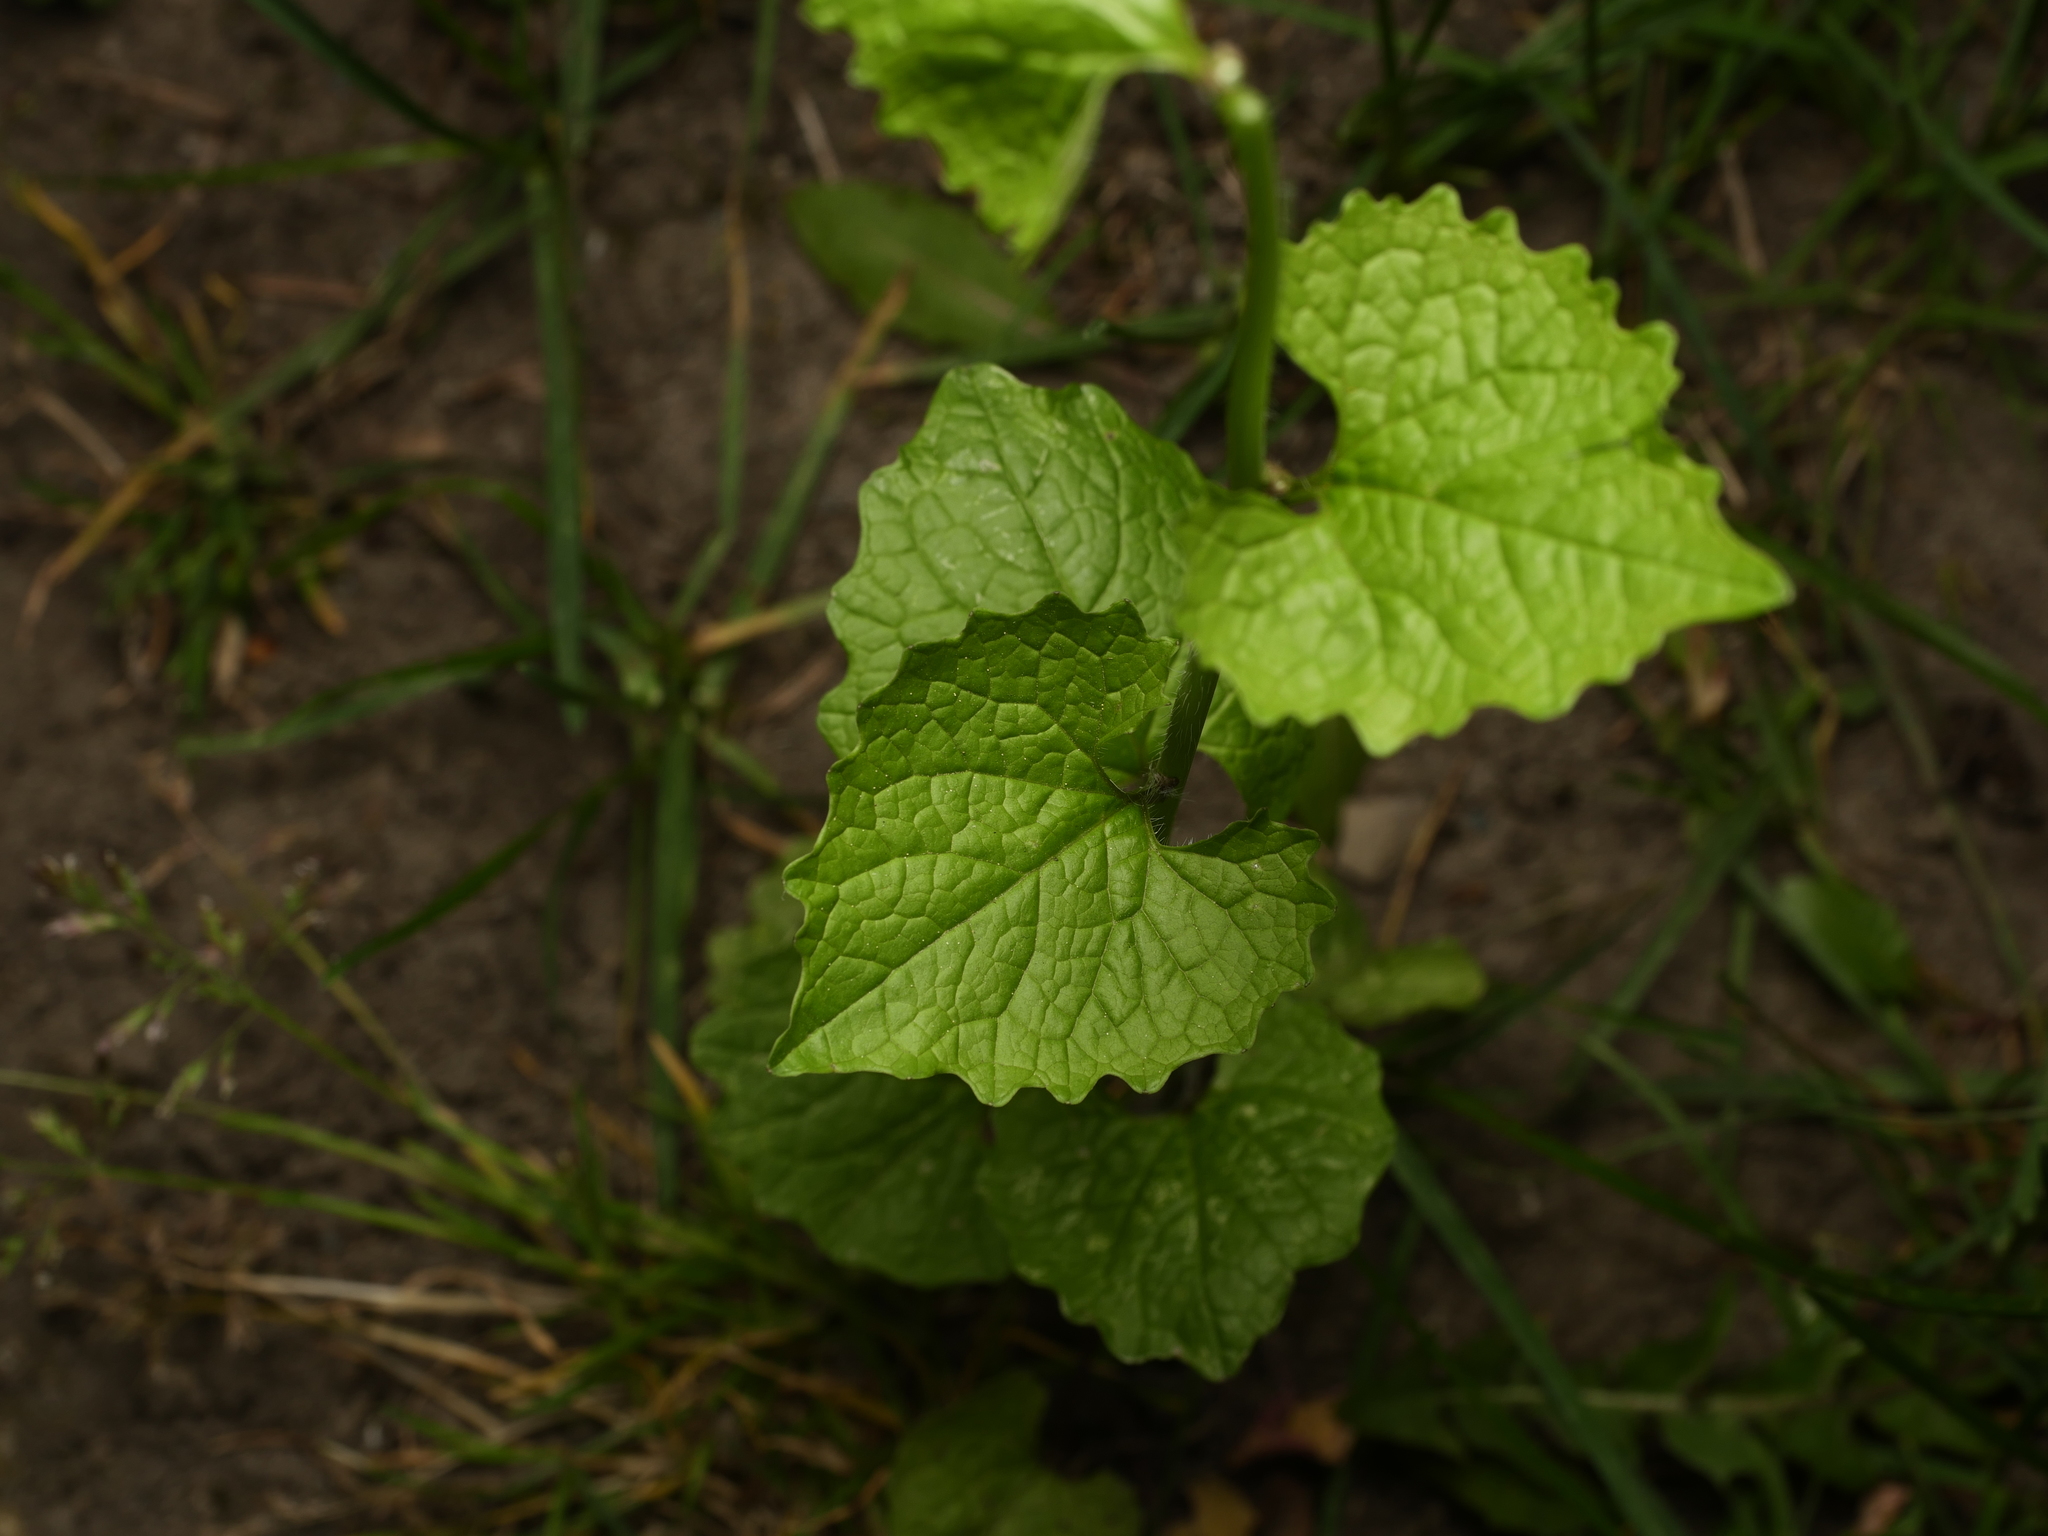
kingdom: Plantae
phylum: Tracheophyta
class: Magnoliopsida
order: Brassicales
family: Brassicaceae
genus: Alliaria
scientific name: Alliaria petiolata
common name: Garlic mustard
